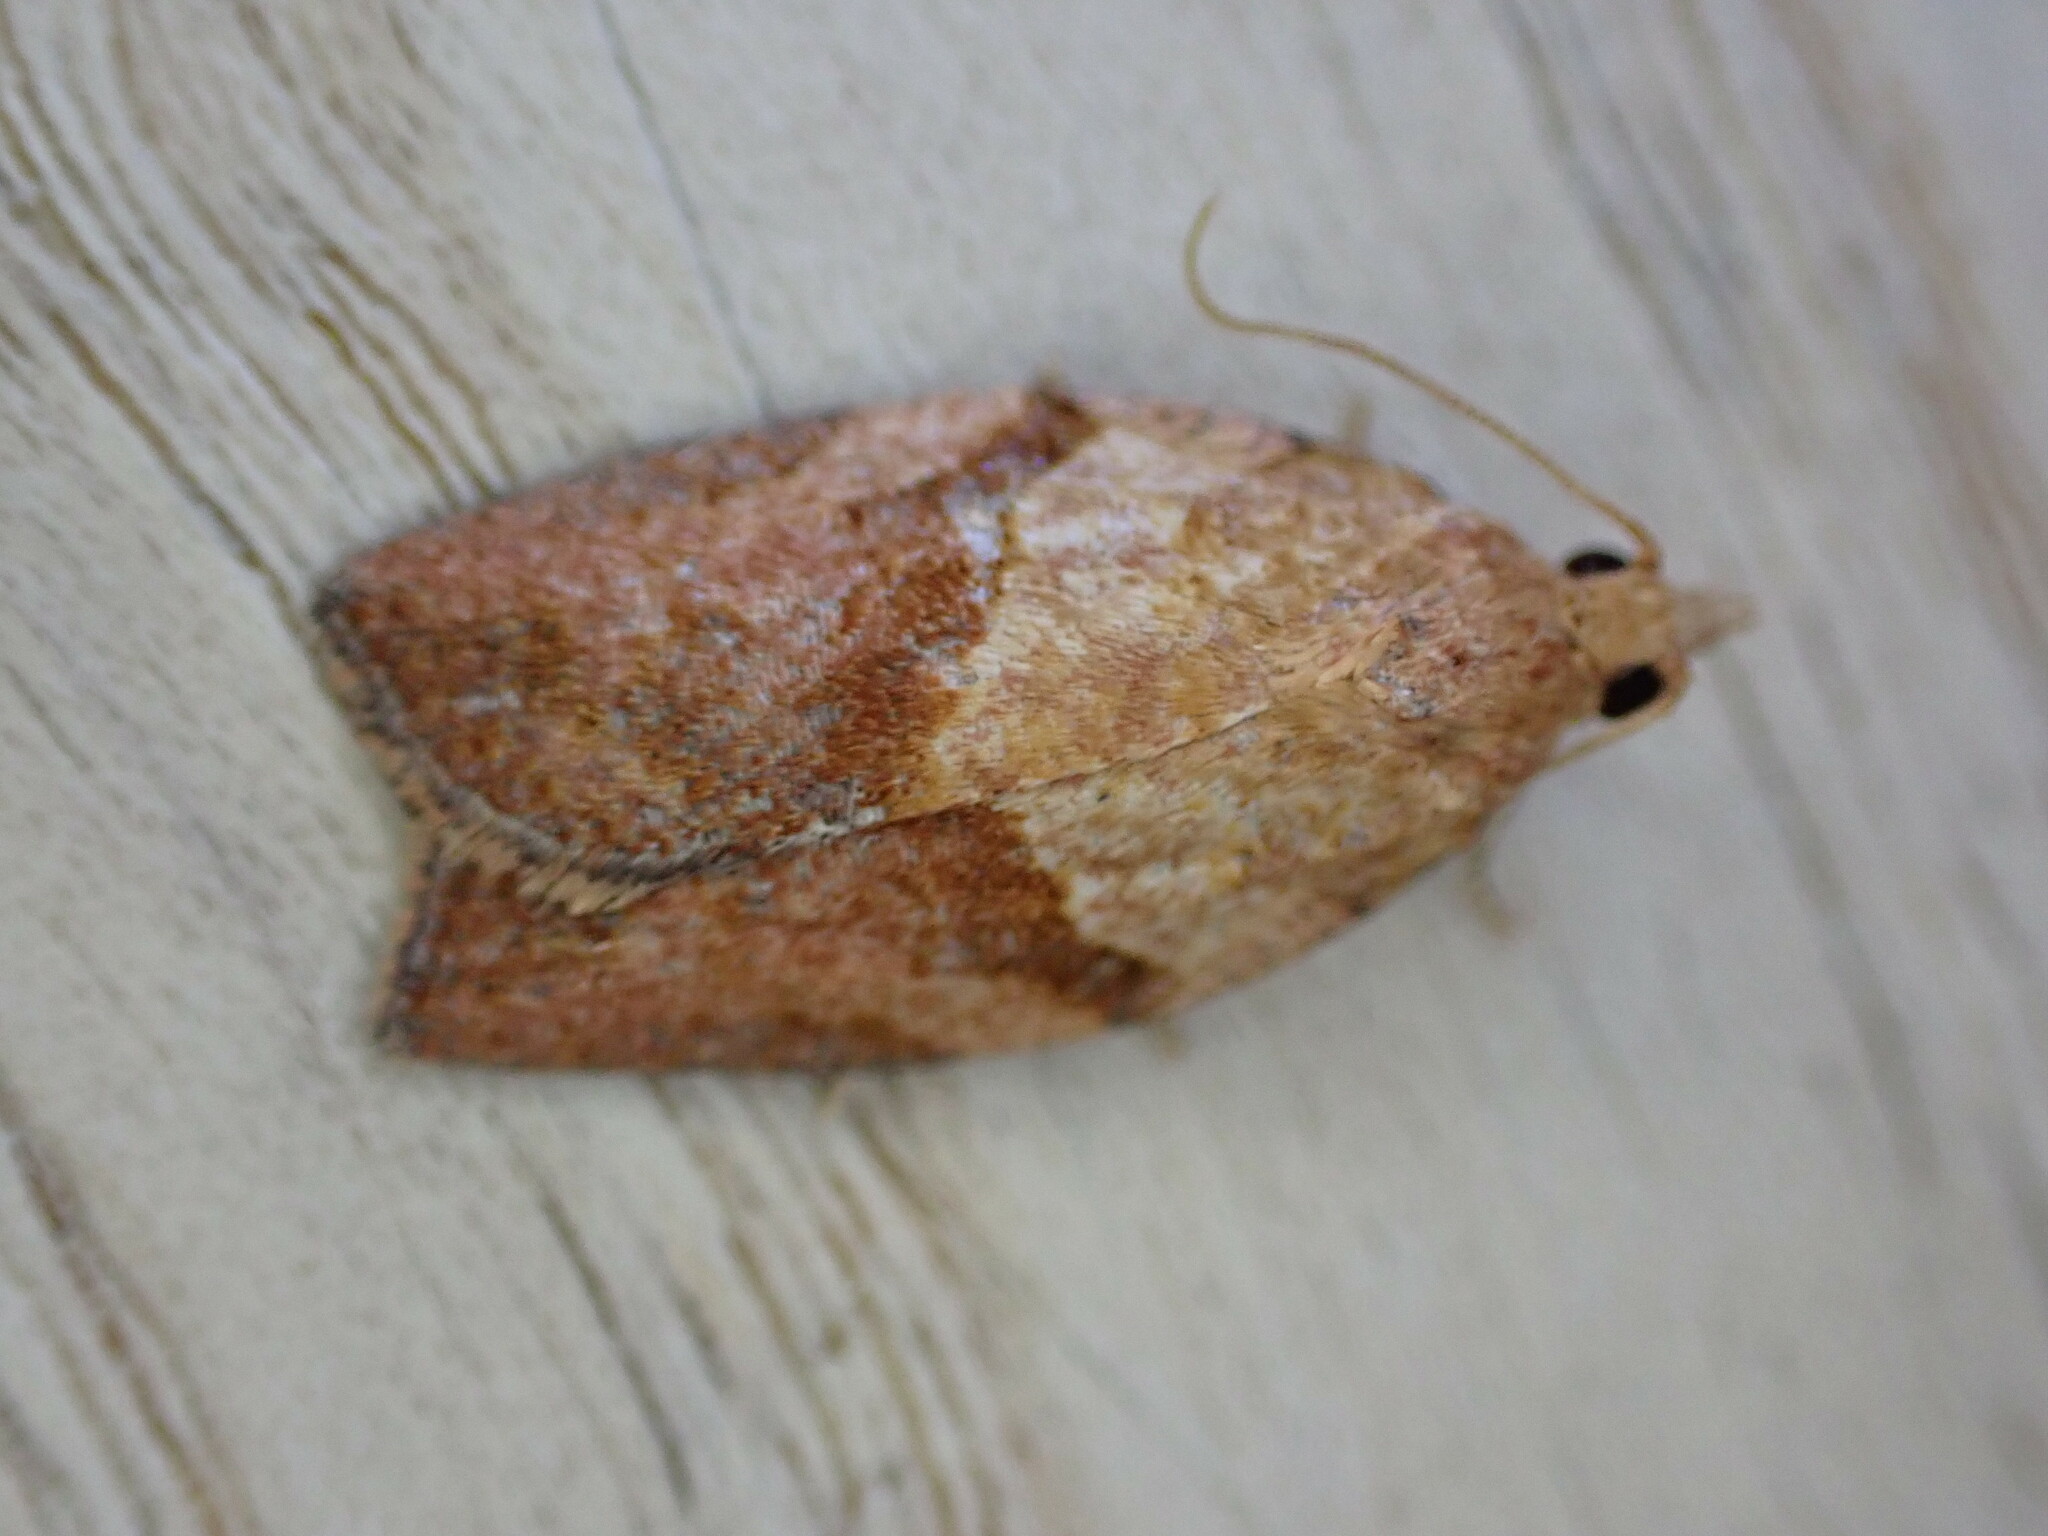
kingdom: Animalia
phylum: Arthropoda
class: Insecta
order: Lepidoptera
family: Tortricidae
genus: Epiphyas
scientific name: Epiphyas postvittana
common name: Light brown apple moth
